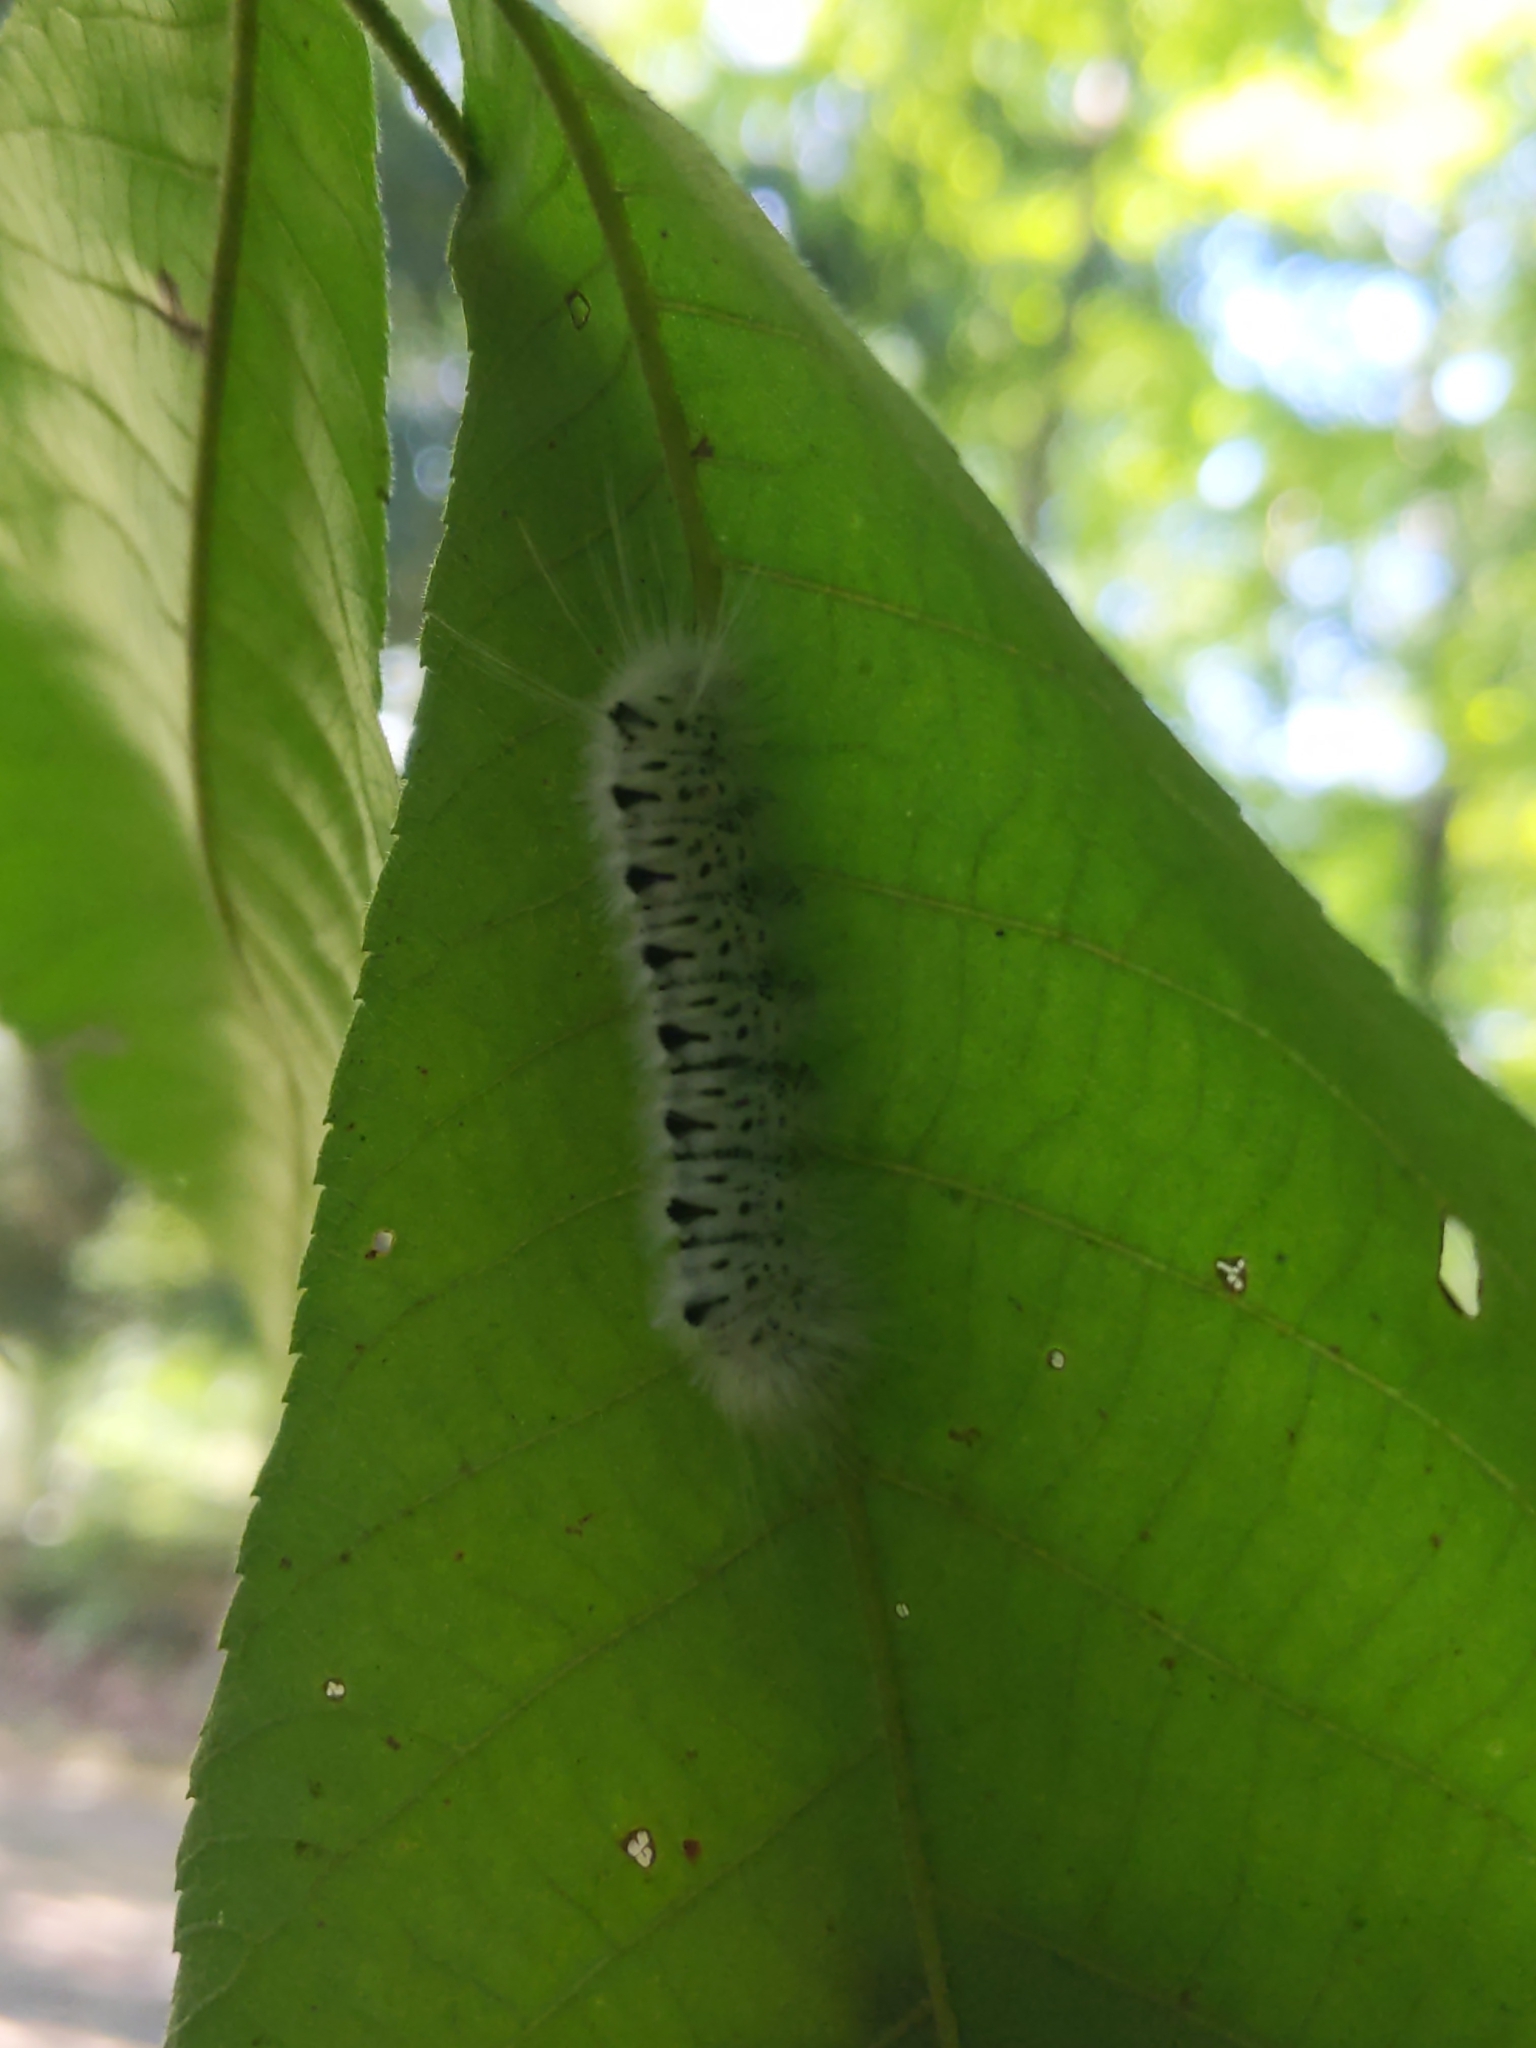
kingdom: Animalia
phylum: Arthropoda
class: Insecta
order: Lepidoptera
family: Erebidae
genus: Lophocampa
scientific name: Lophocampa caryae
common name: Hickory tussock moth
